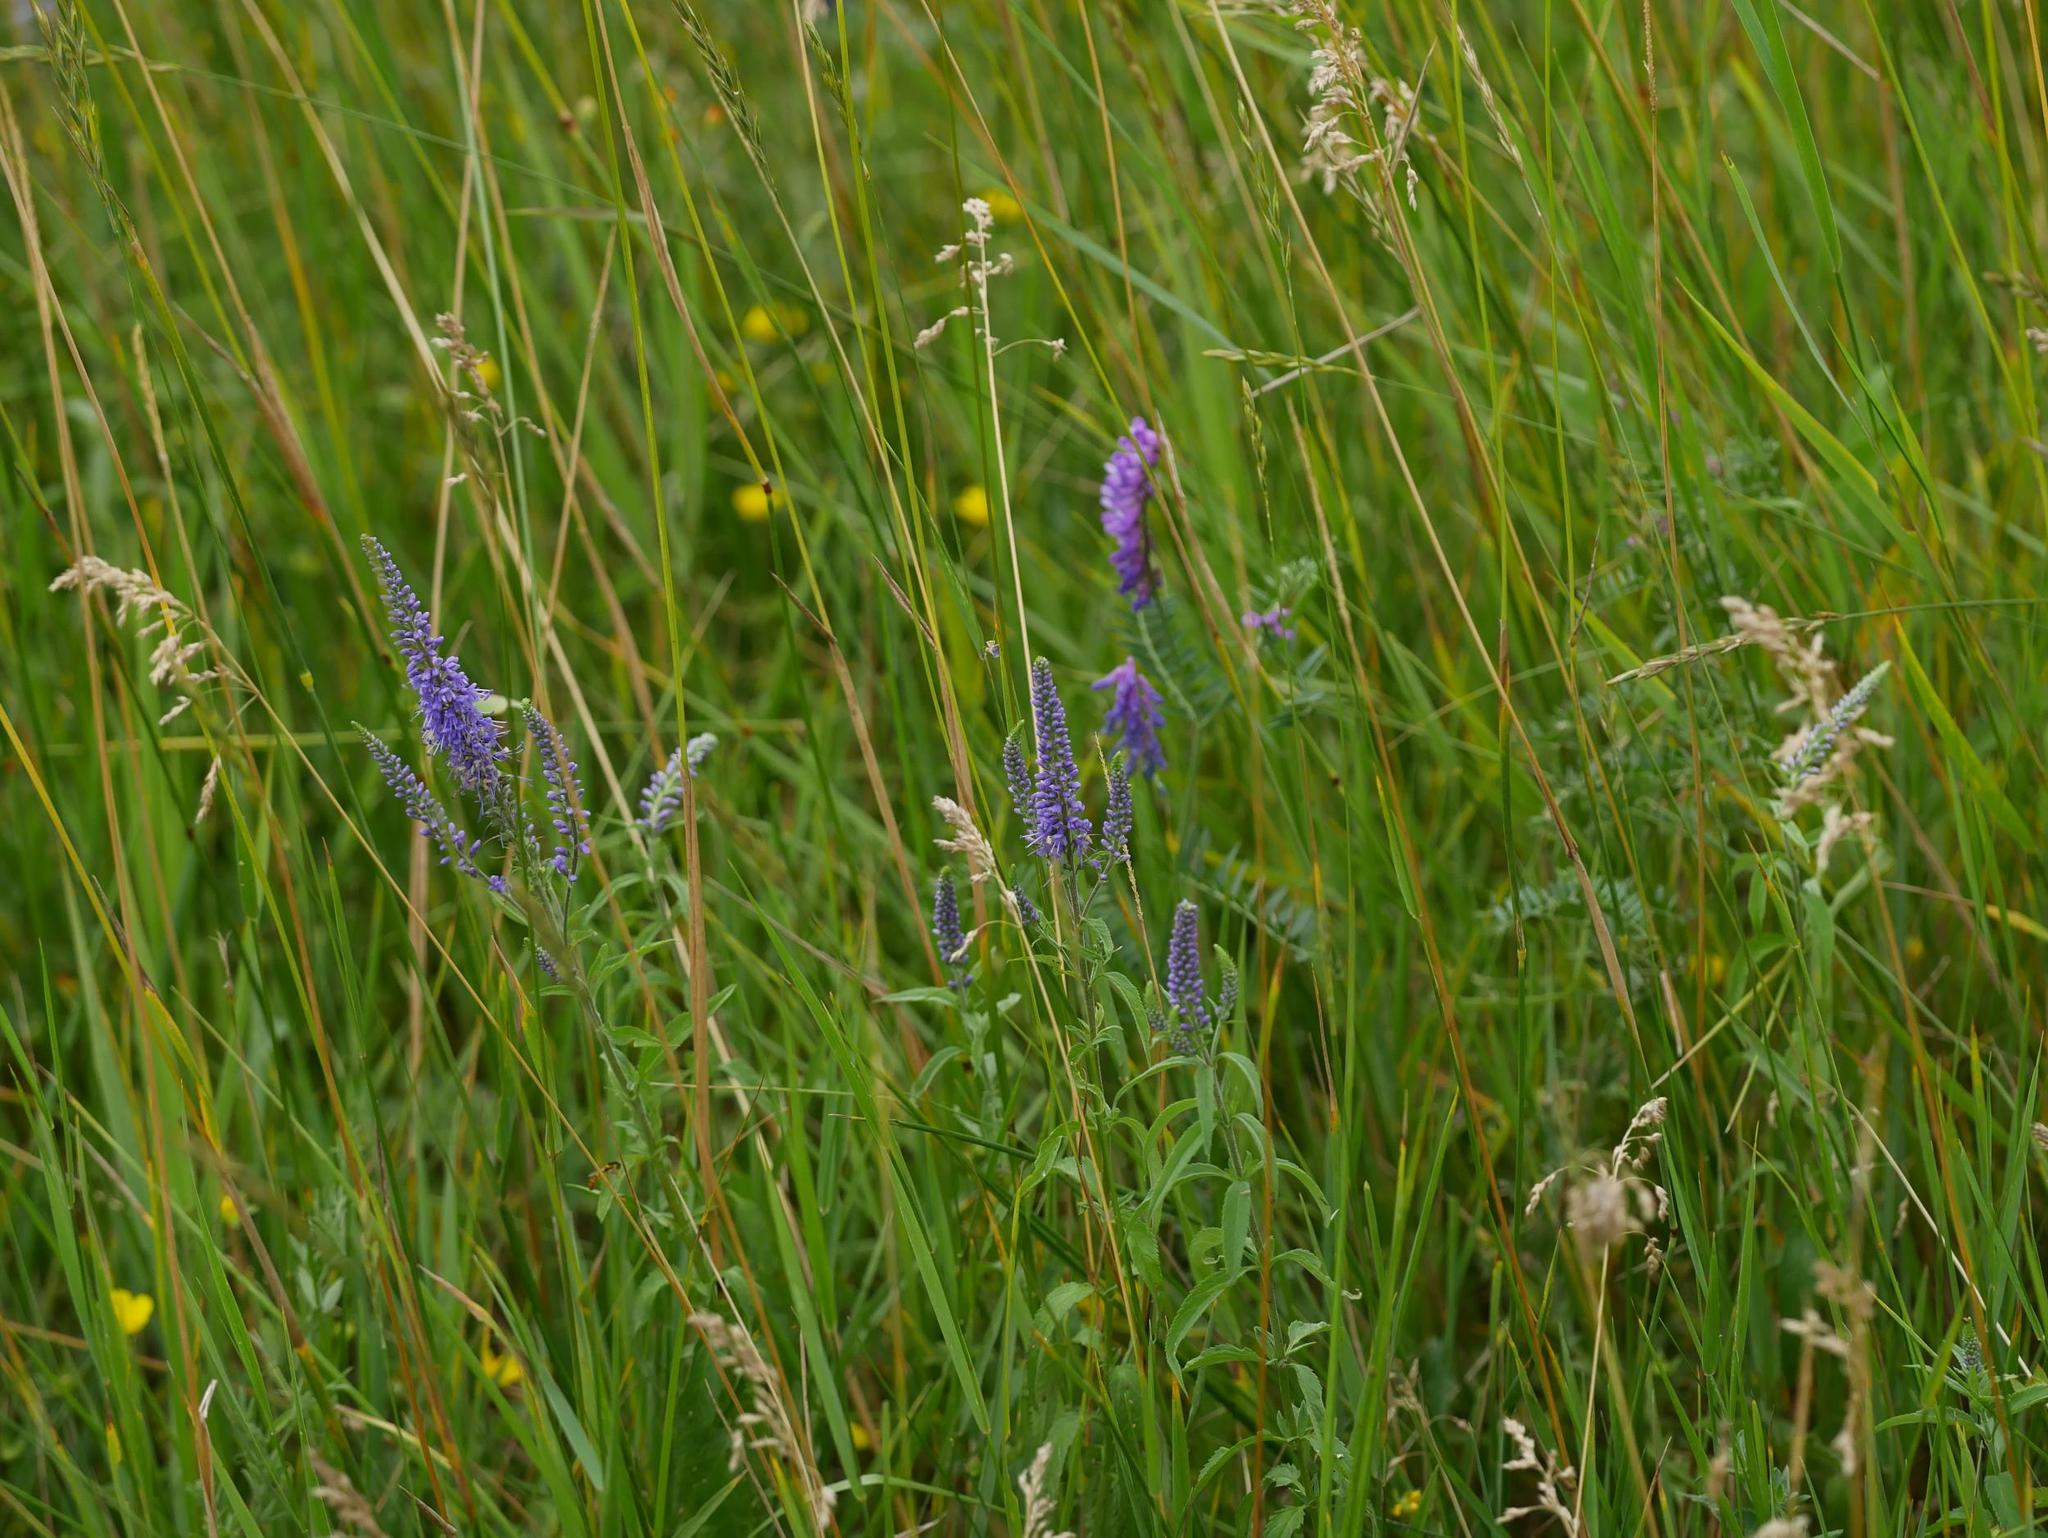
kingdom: Plantae
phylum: Tracheophyta
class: Magnoliopsida
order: Lamiales
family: Plantaginaceae
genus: Veronica
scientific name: Veronica longifolia
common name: Garden speedwell
